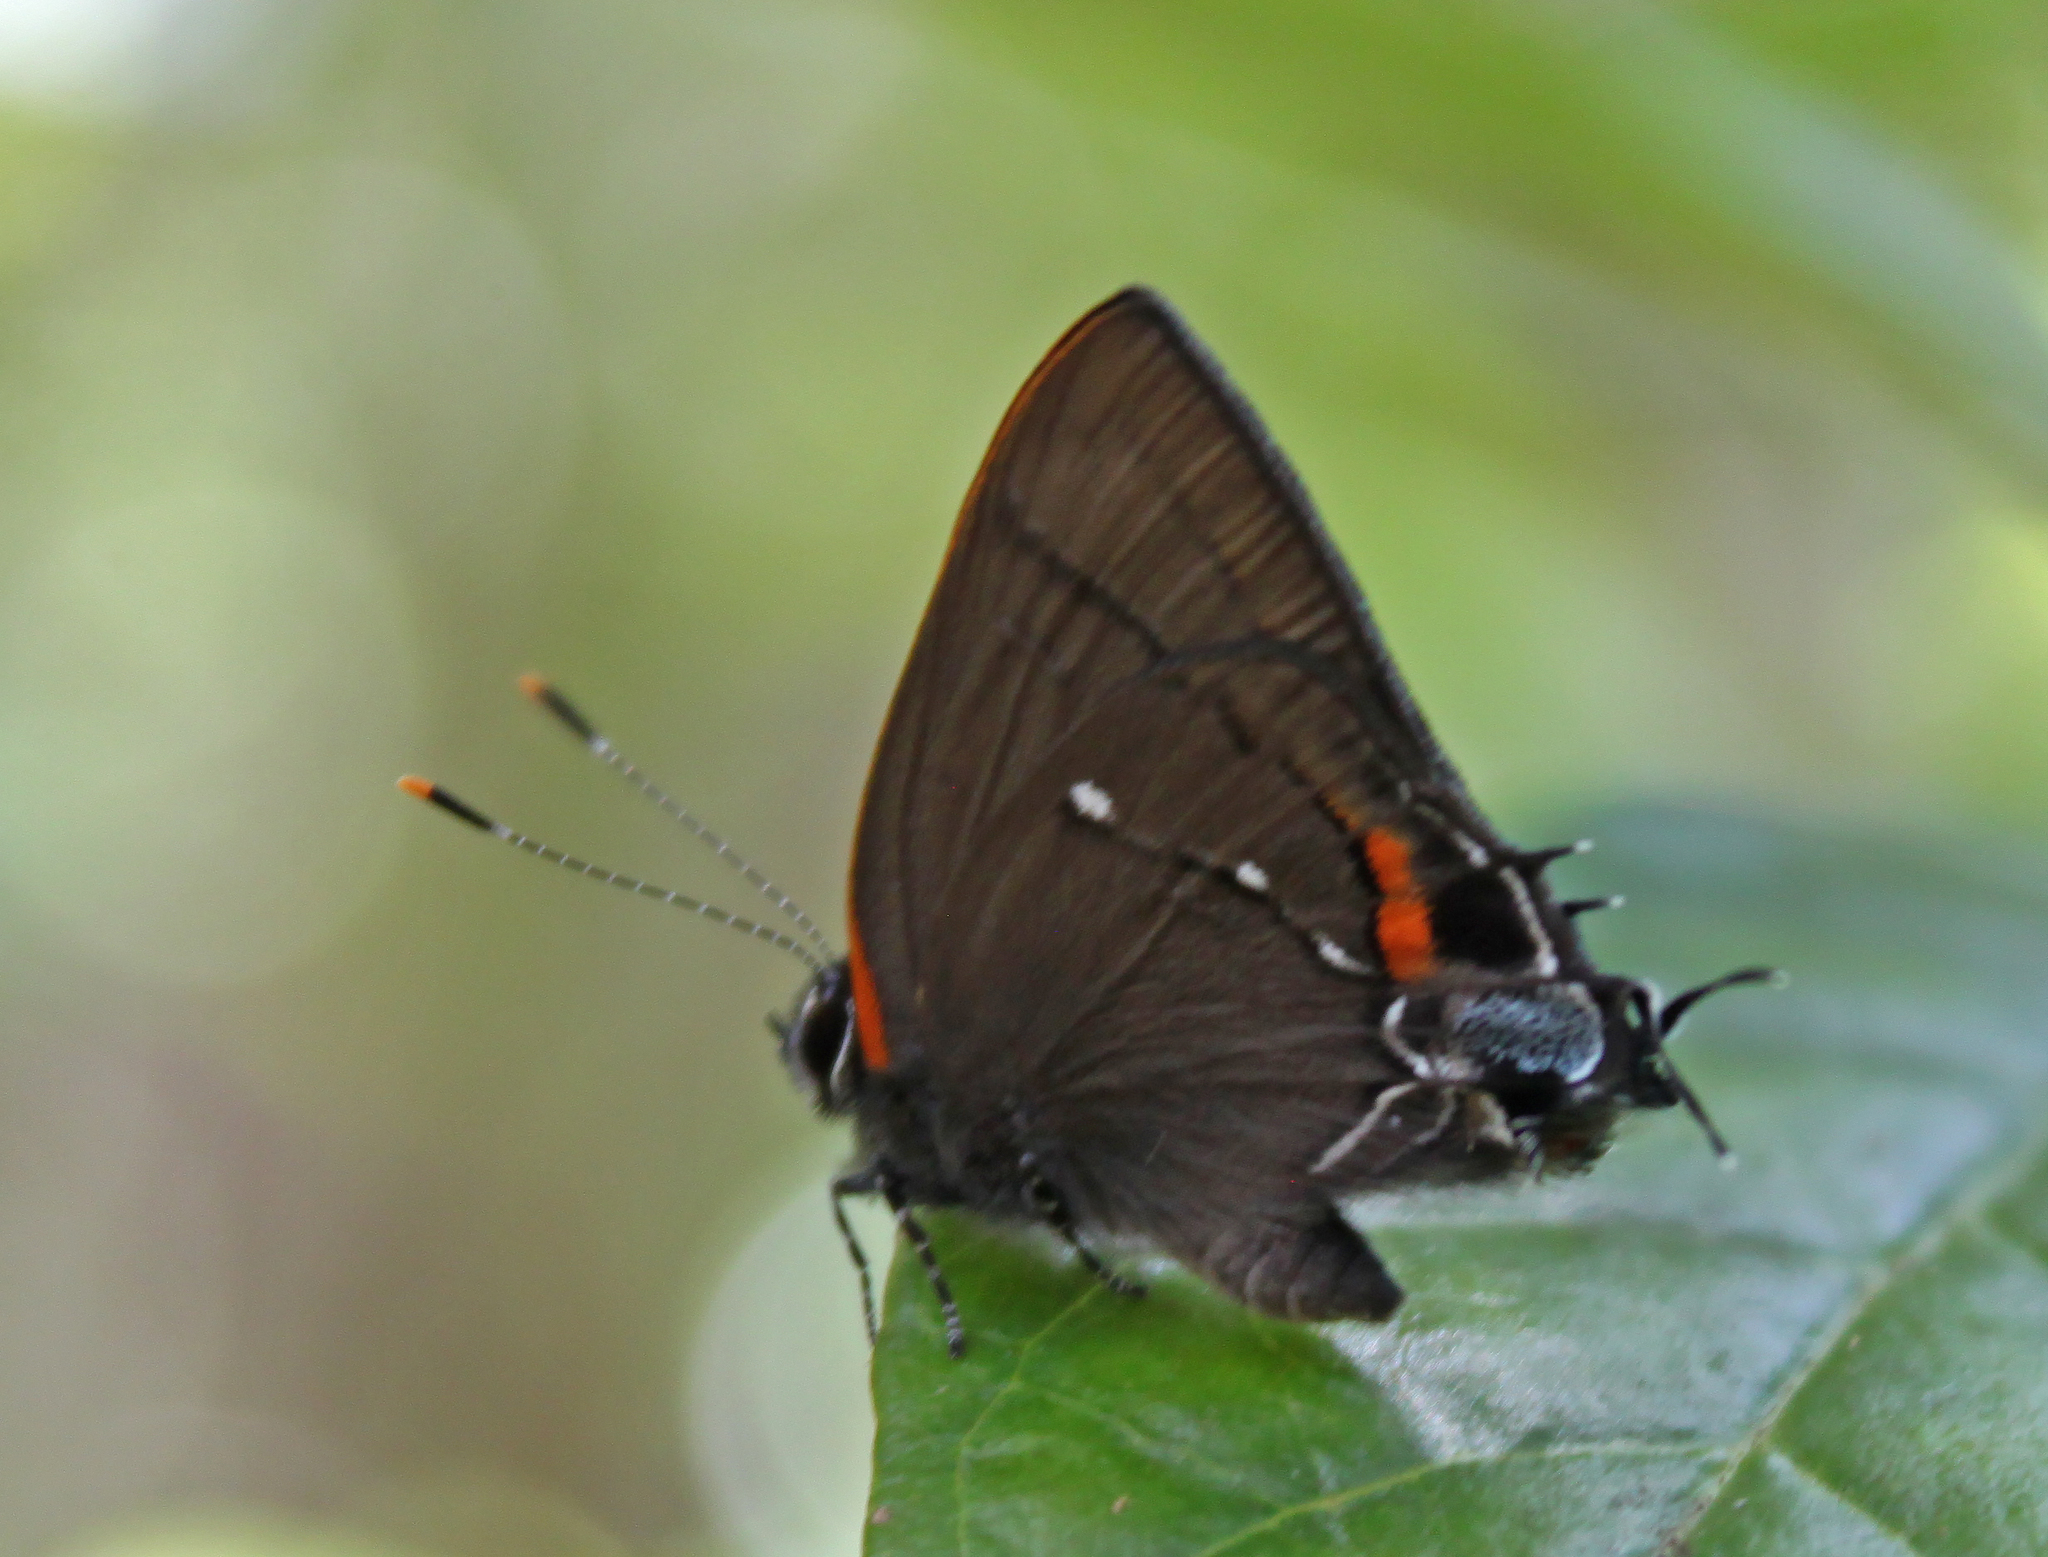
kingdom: Animalia
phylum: Arthropoda
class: Insecta
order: Lepidoptera
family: Lycaenidae
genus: Thecla
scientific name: Thecla angelia
